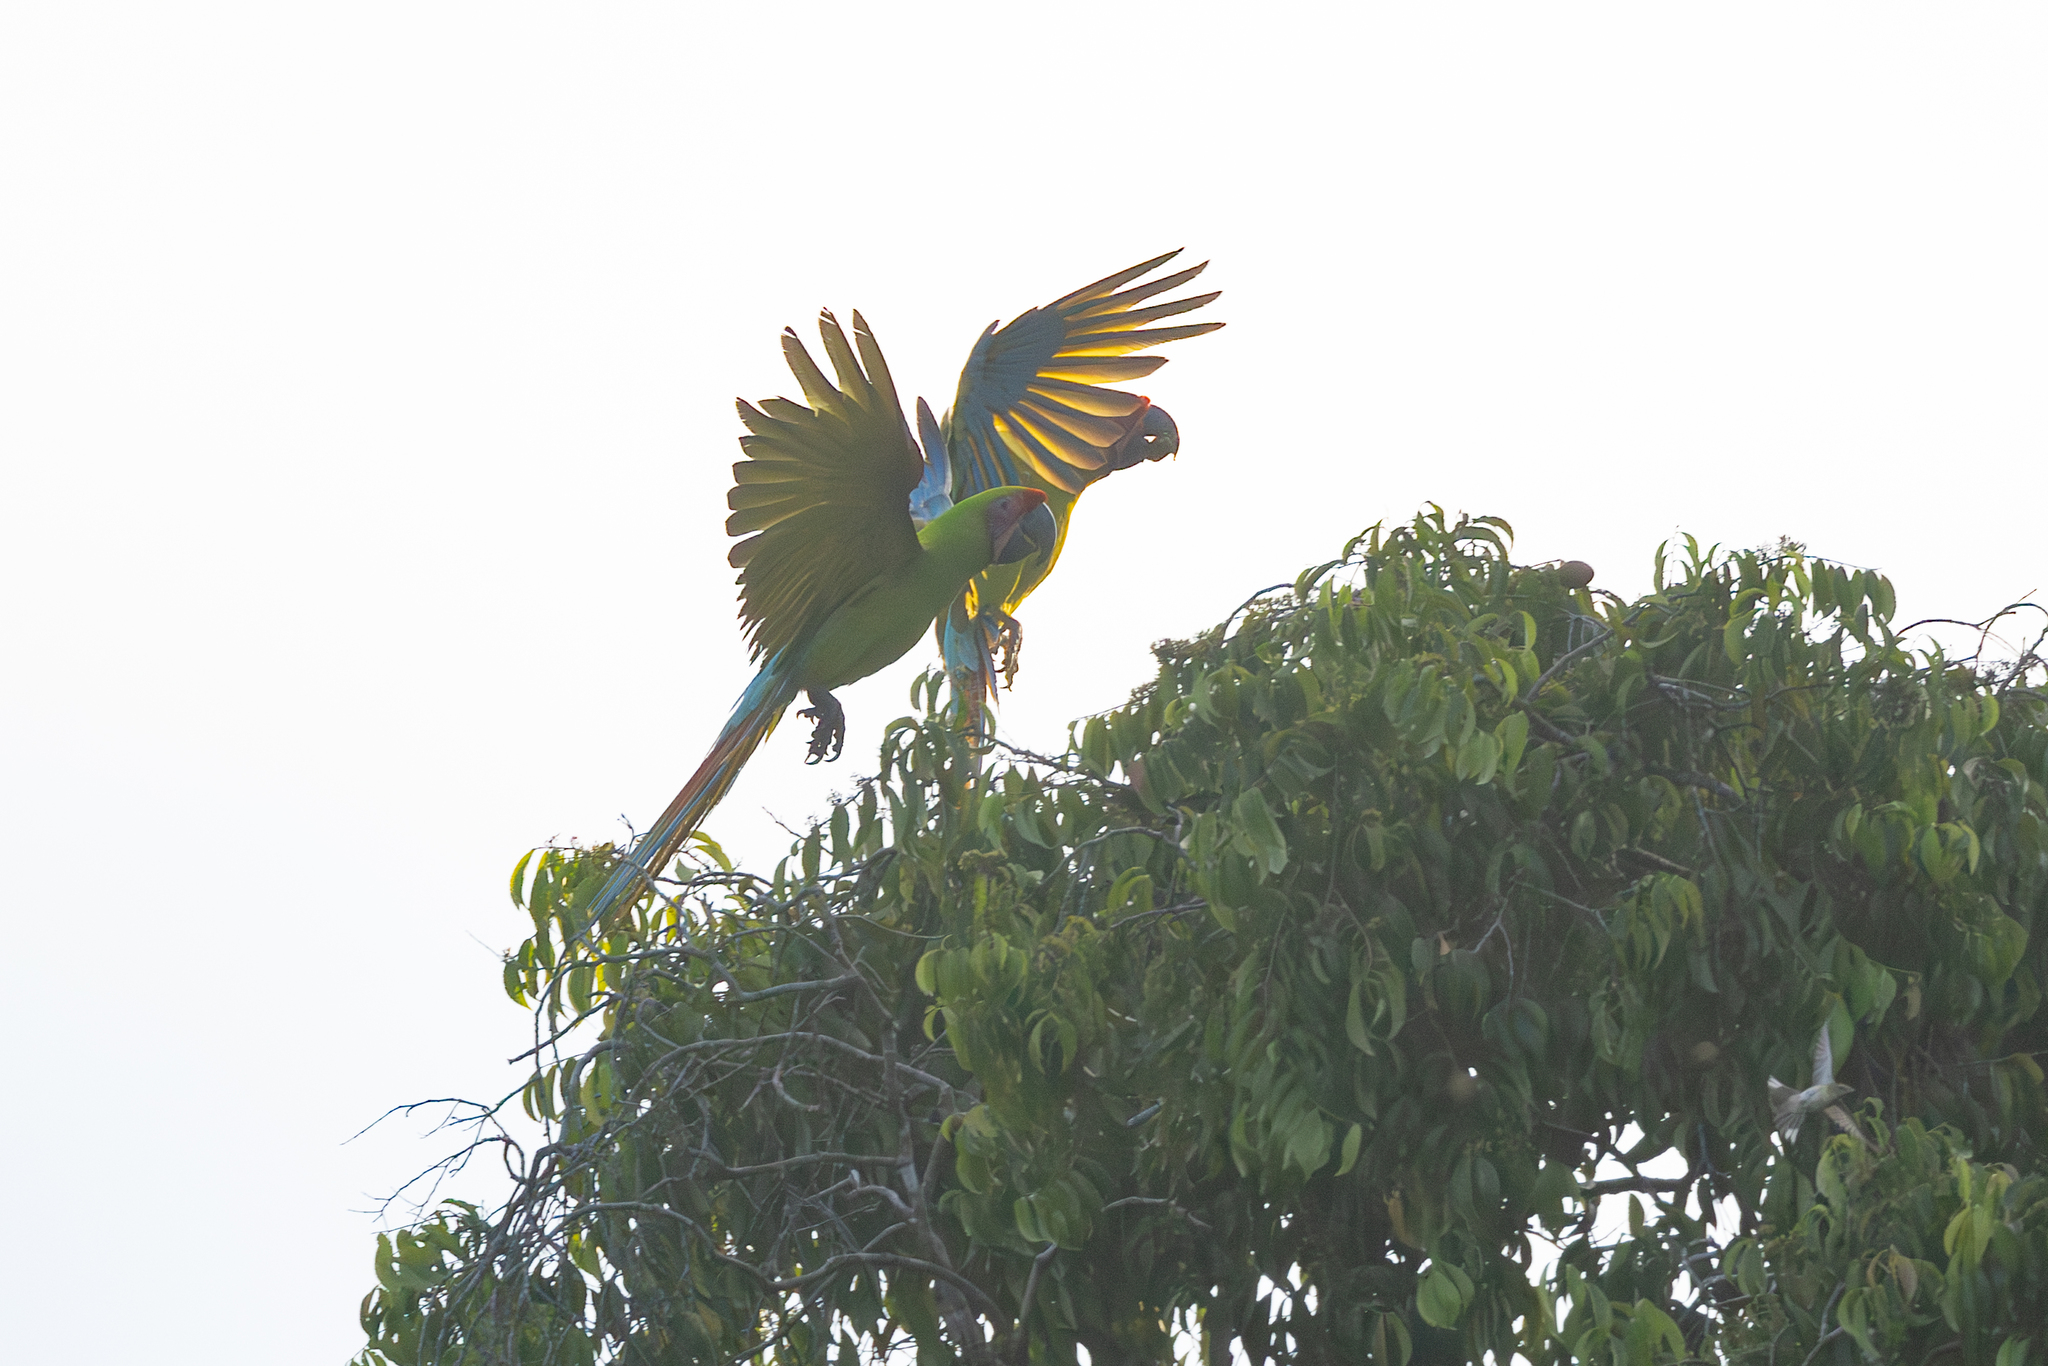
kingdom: Animalia
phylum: Chordata
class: Aves
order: Psittaciformes
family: Psittacidae
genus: Ara
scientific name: Ara ambiguus
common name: Great green macaw
